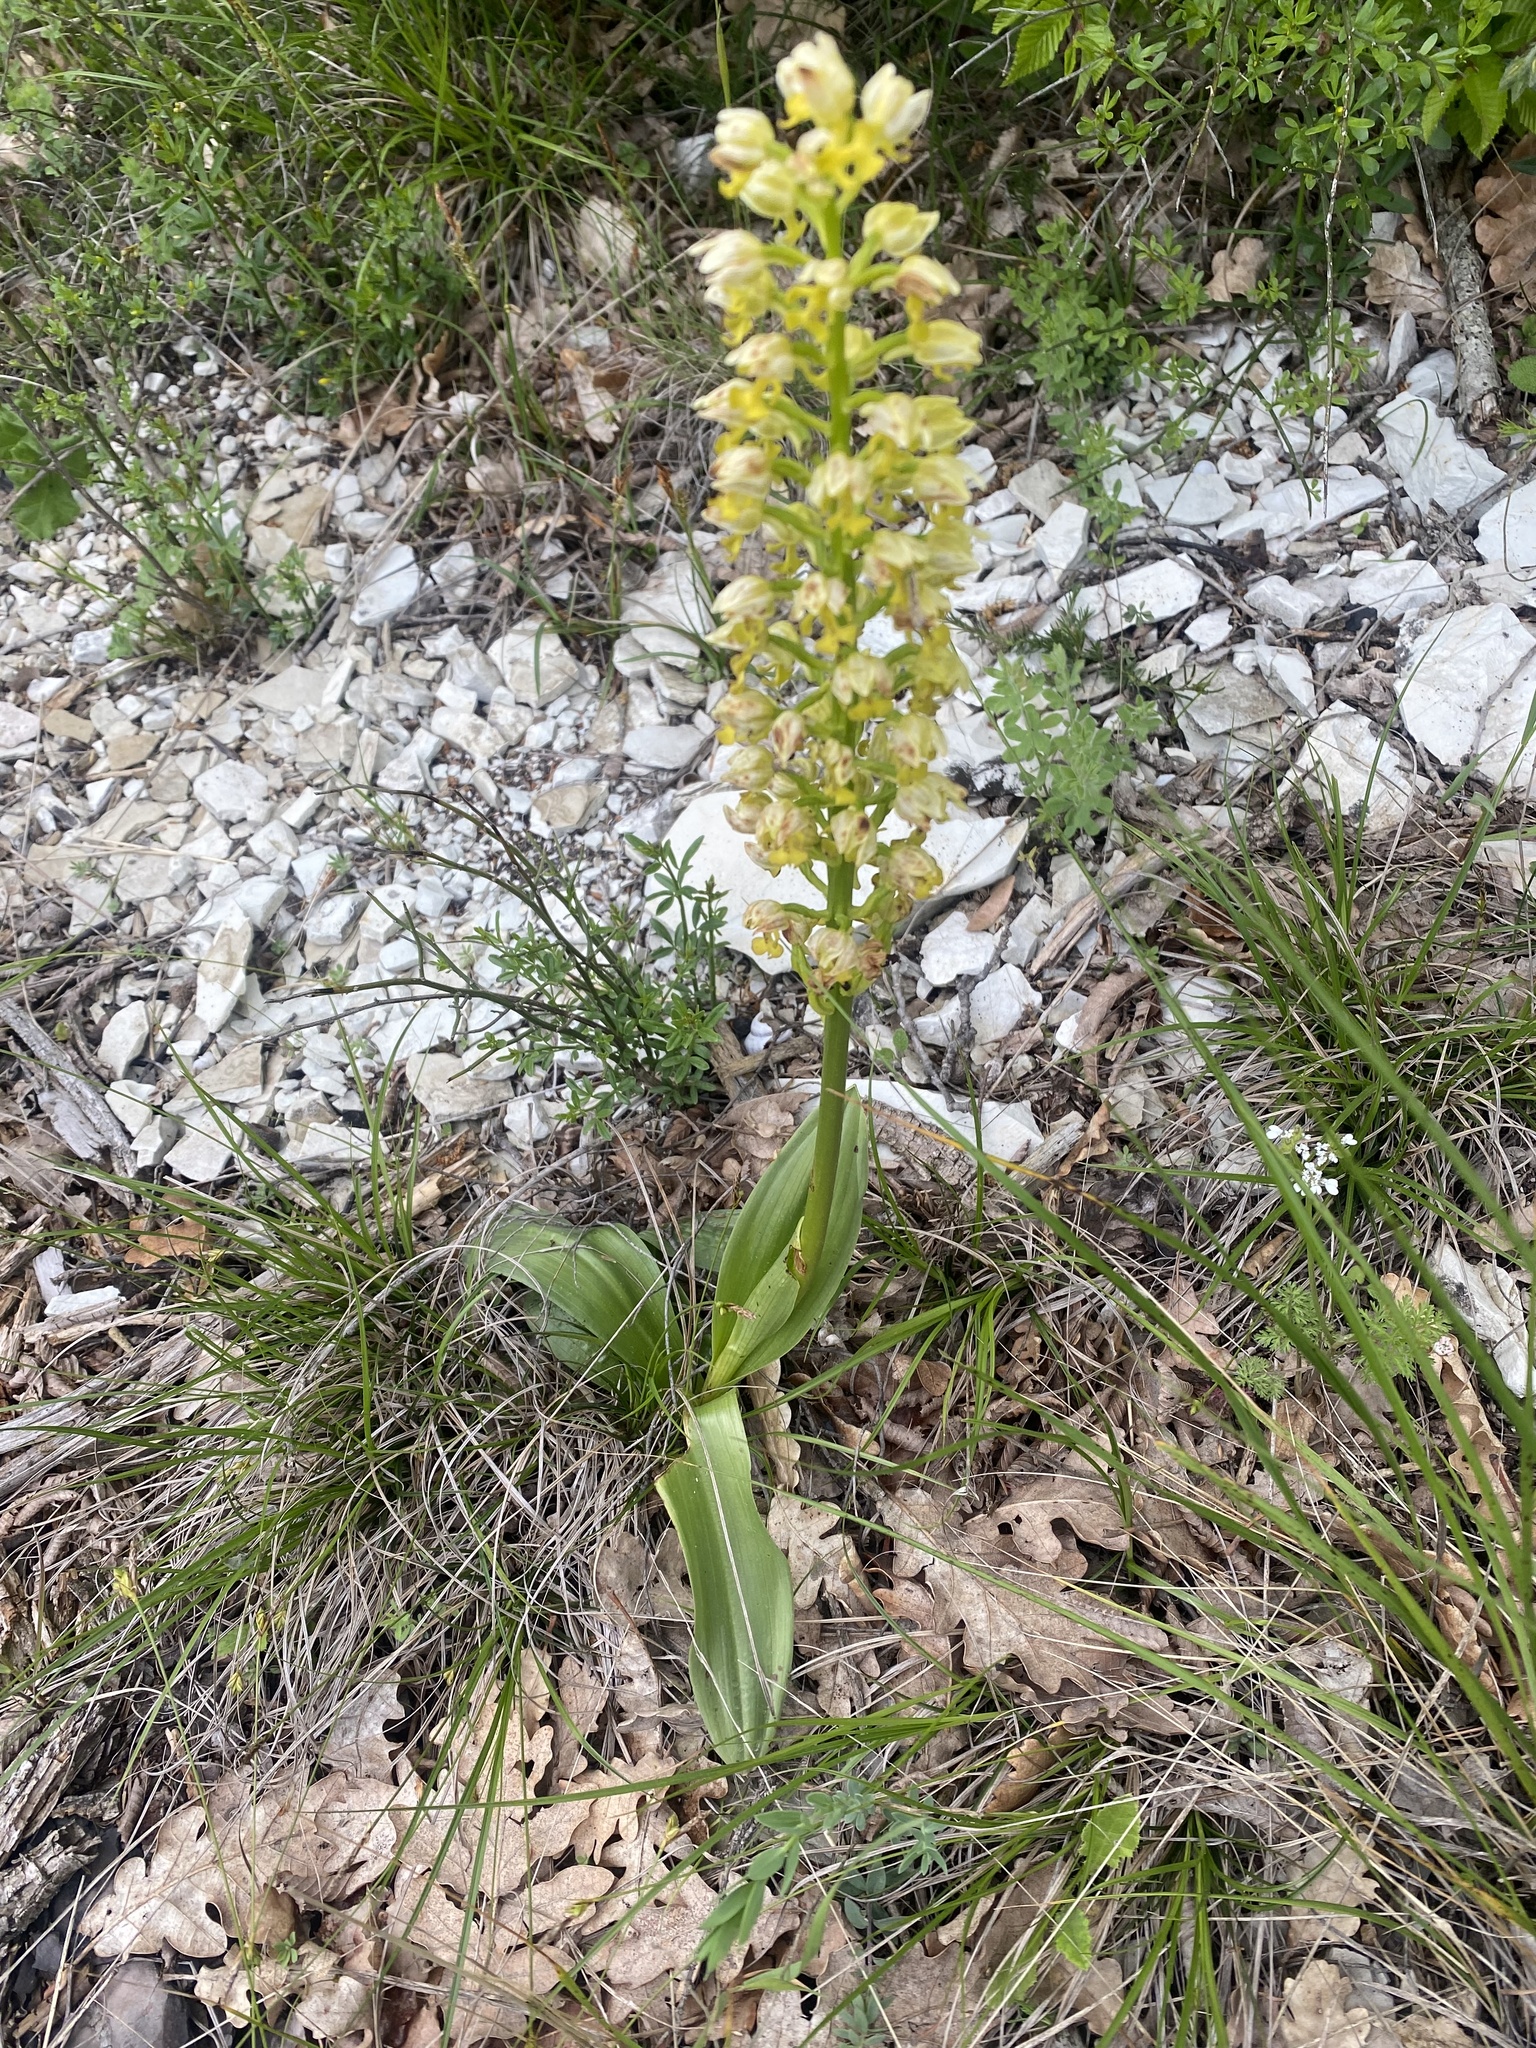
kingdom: Plantae
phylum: Tracheophyta
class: Liliopsida
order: Asparagales
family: Orchidaceae
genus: Orchis
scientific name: Orchis punctulata
